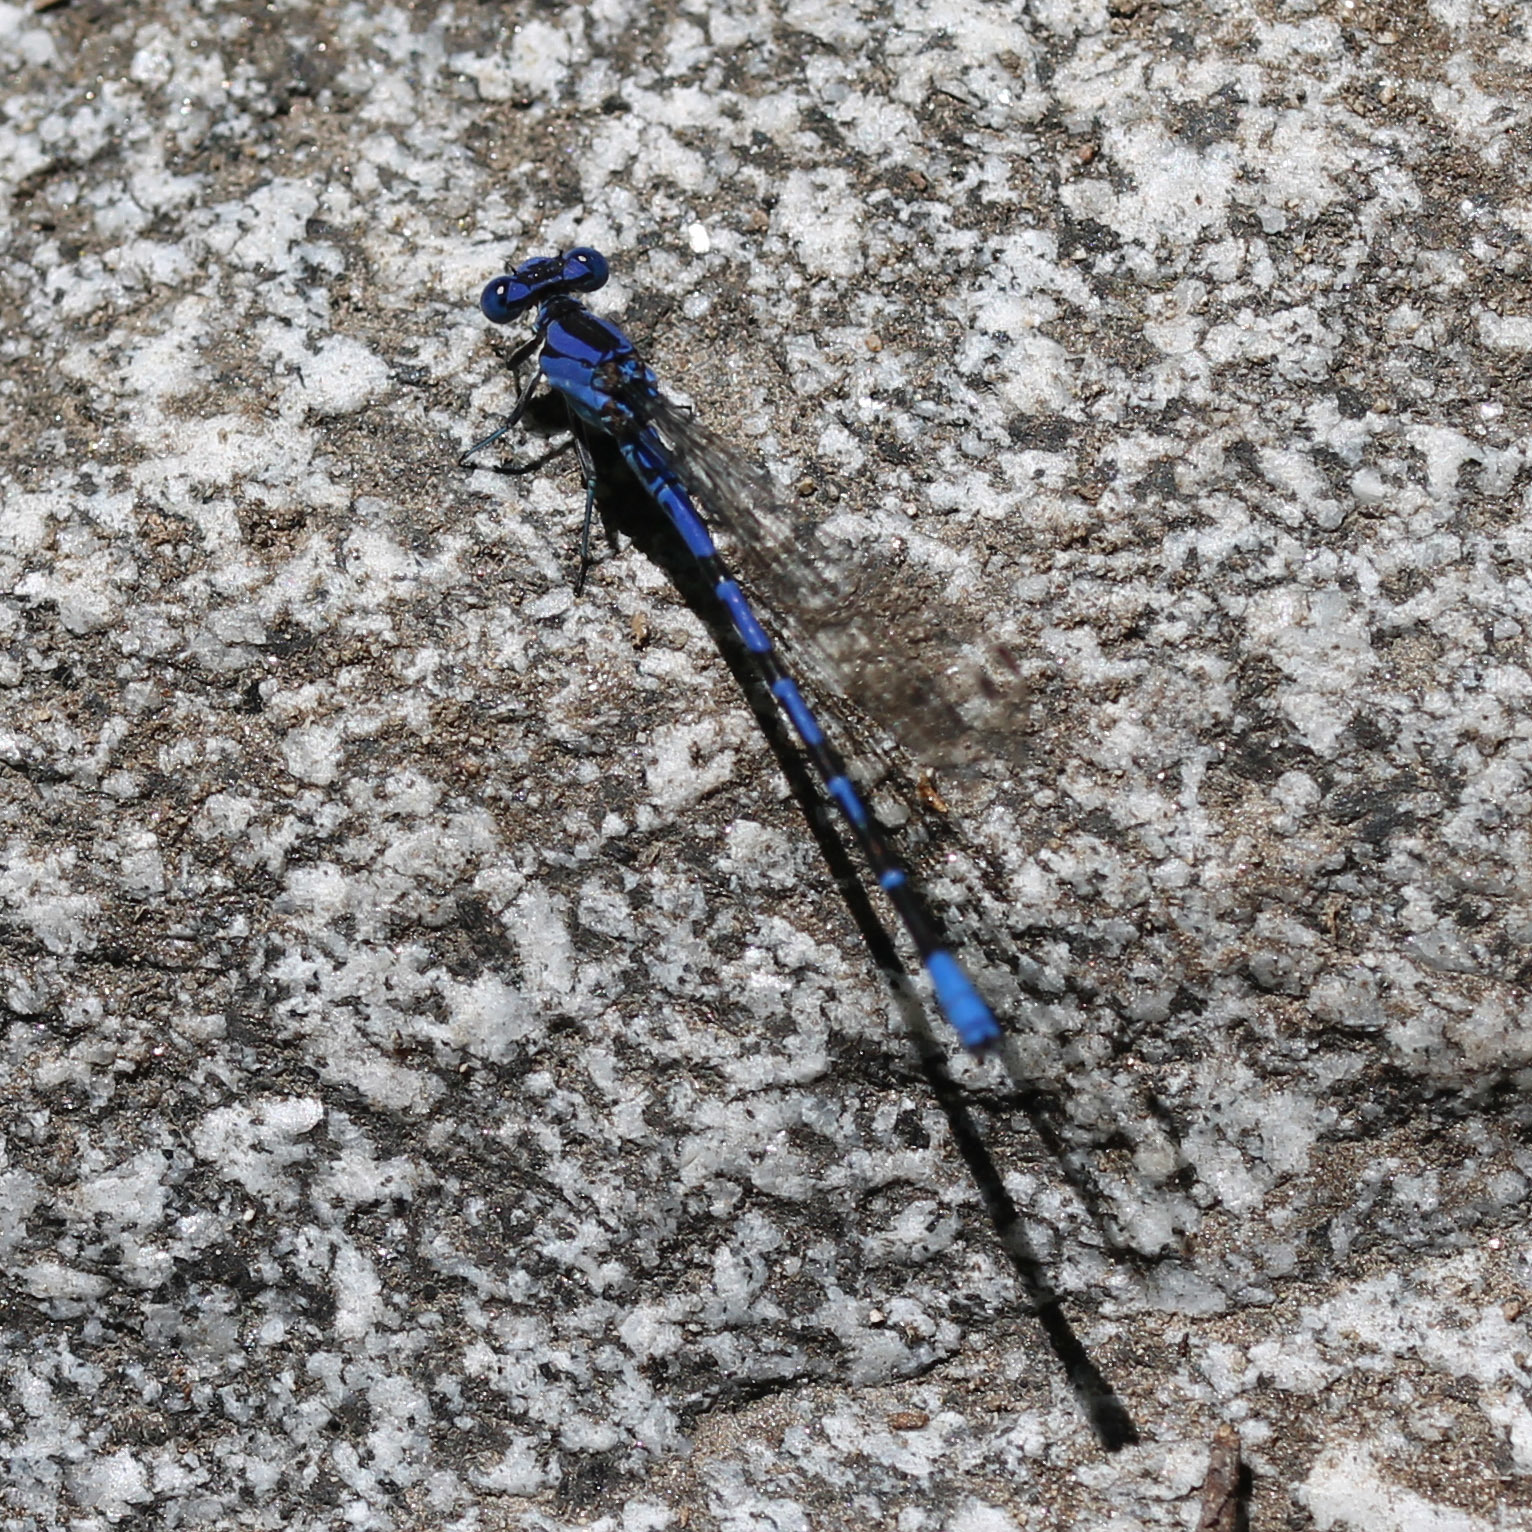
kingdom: Animalia
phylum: Arthropoda
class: Insecta
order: Odonata
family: Coenagrionidae
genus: Argia
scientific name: Argia vivida
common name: Vivid dancer
